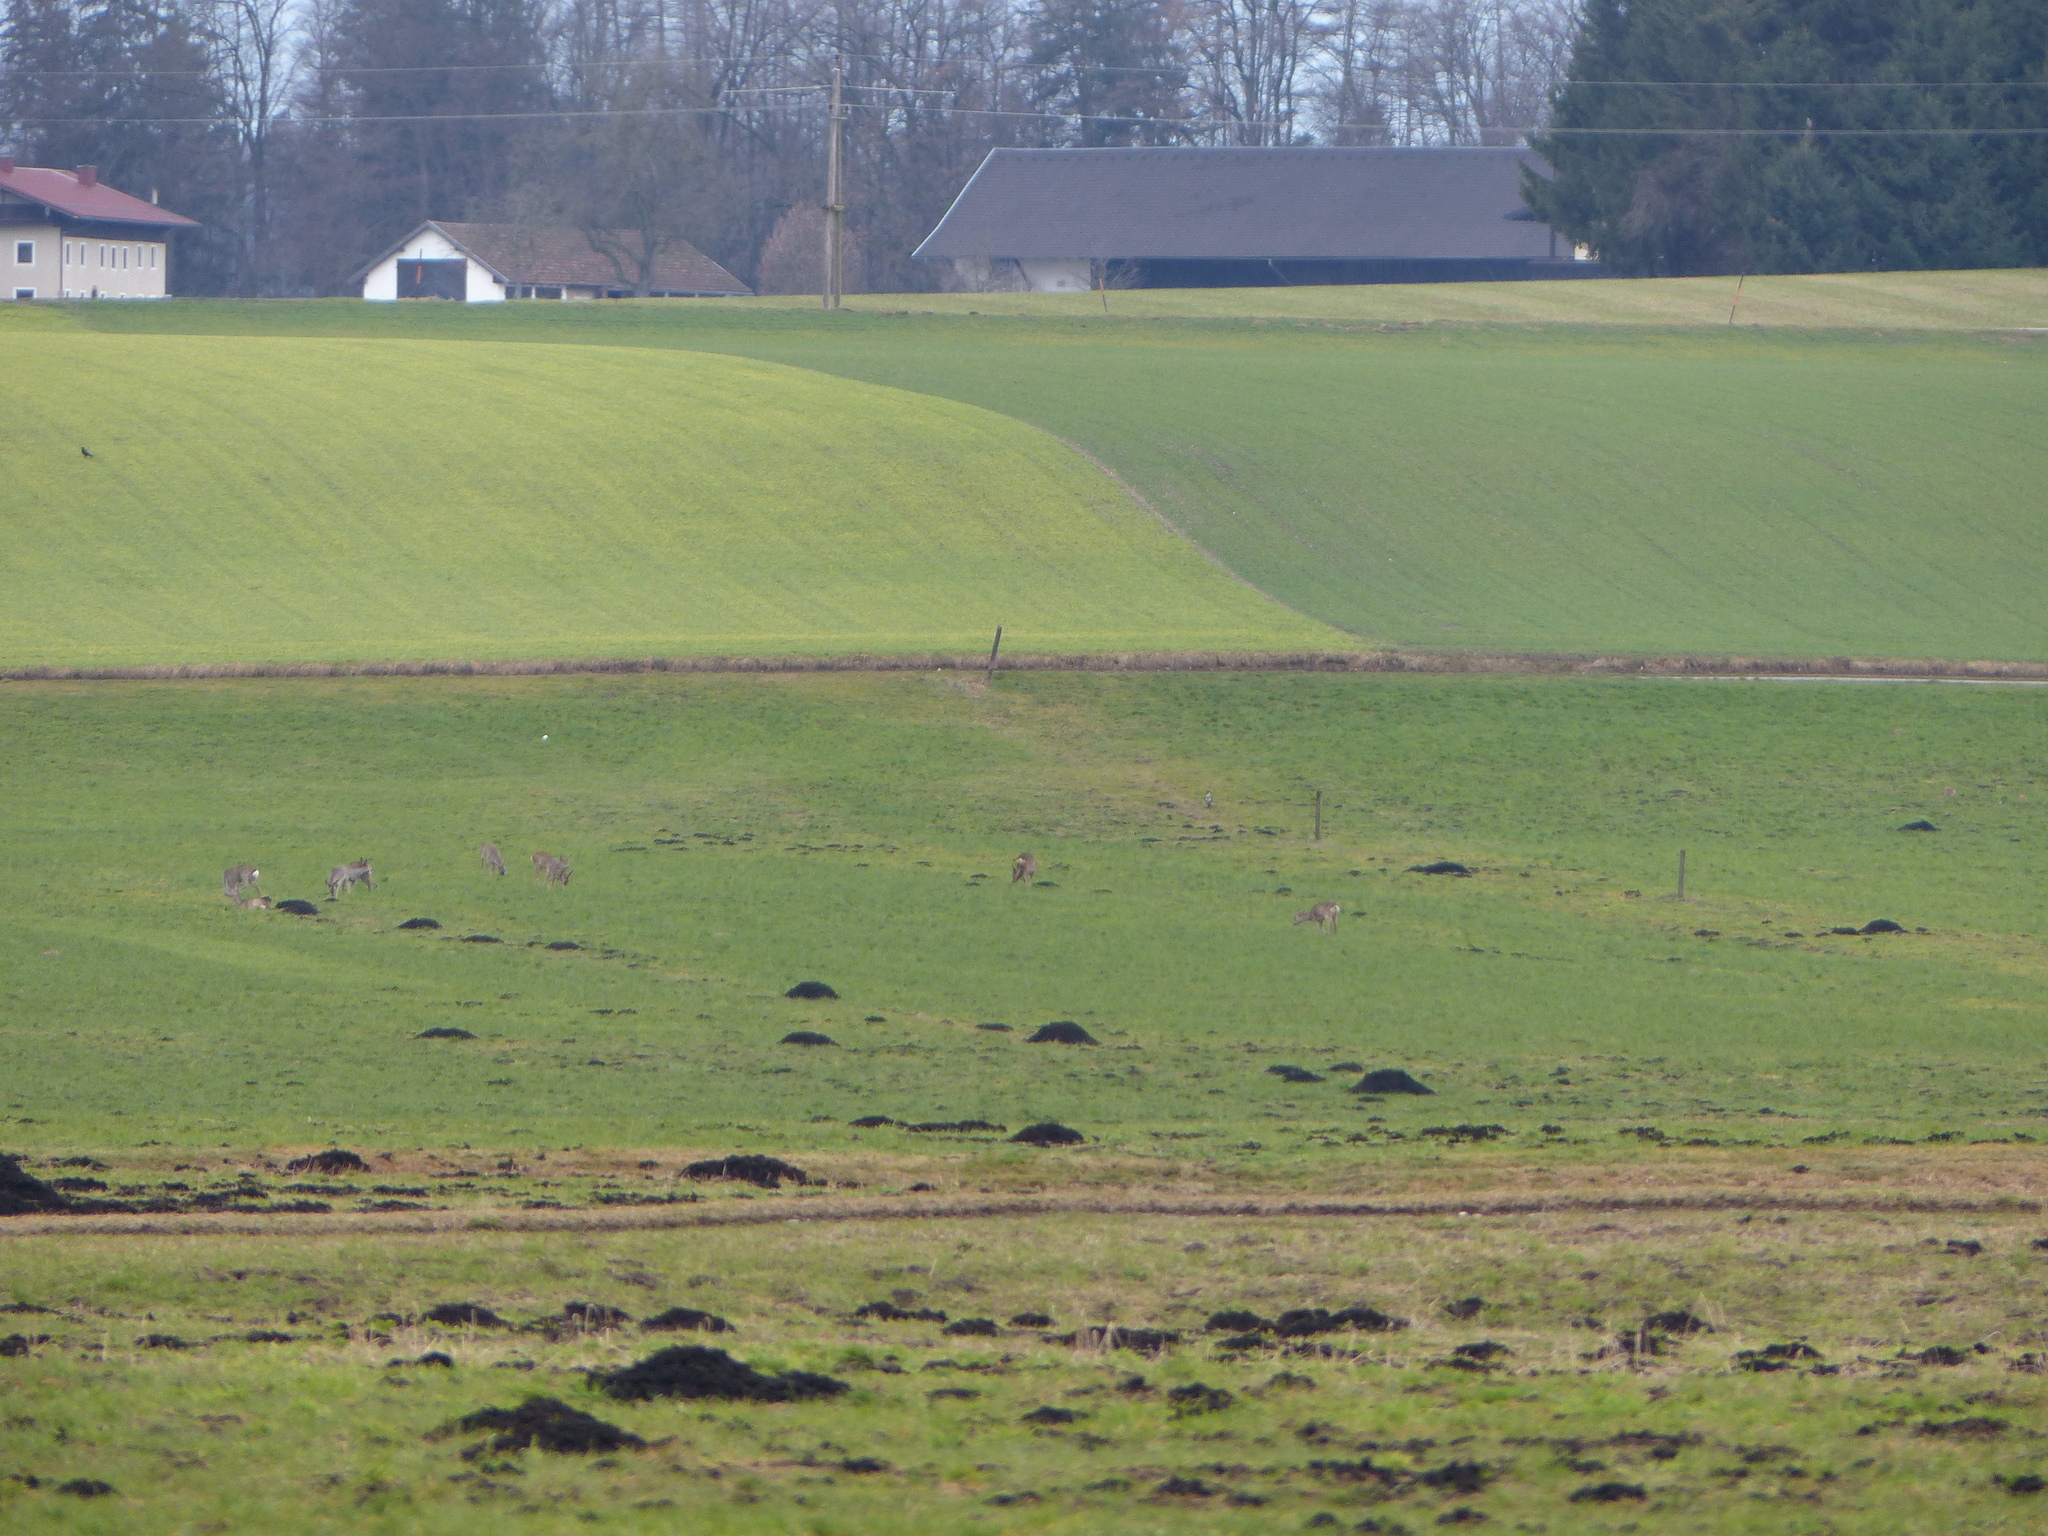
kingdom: Animalia
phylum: Chordata
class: Mammalia
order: Artiodactyla
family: Cervidae
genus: Capreolus
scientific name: Capreolus capreolus
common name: Western roe deer
